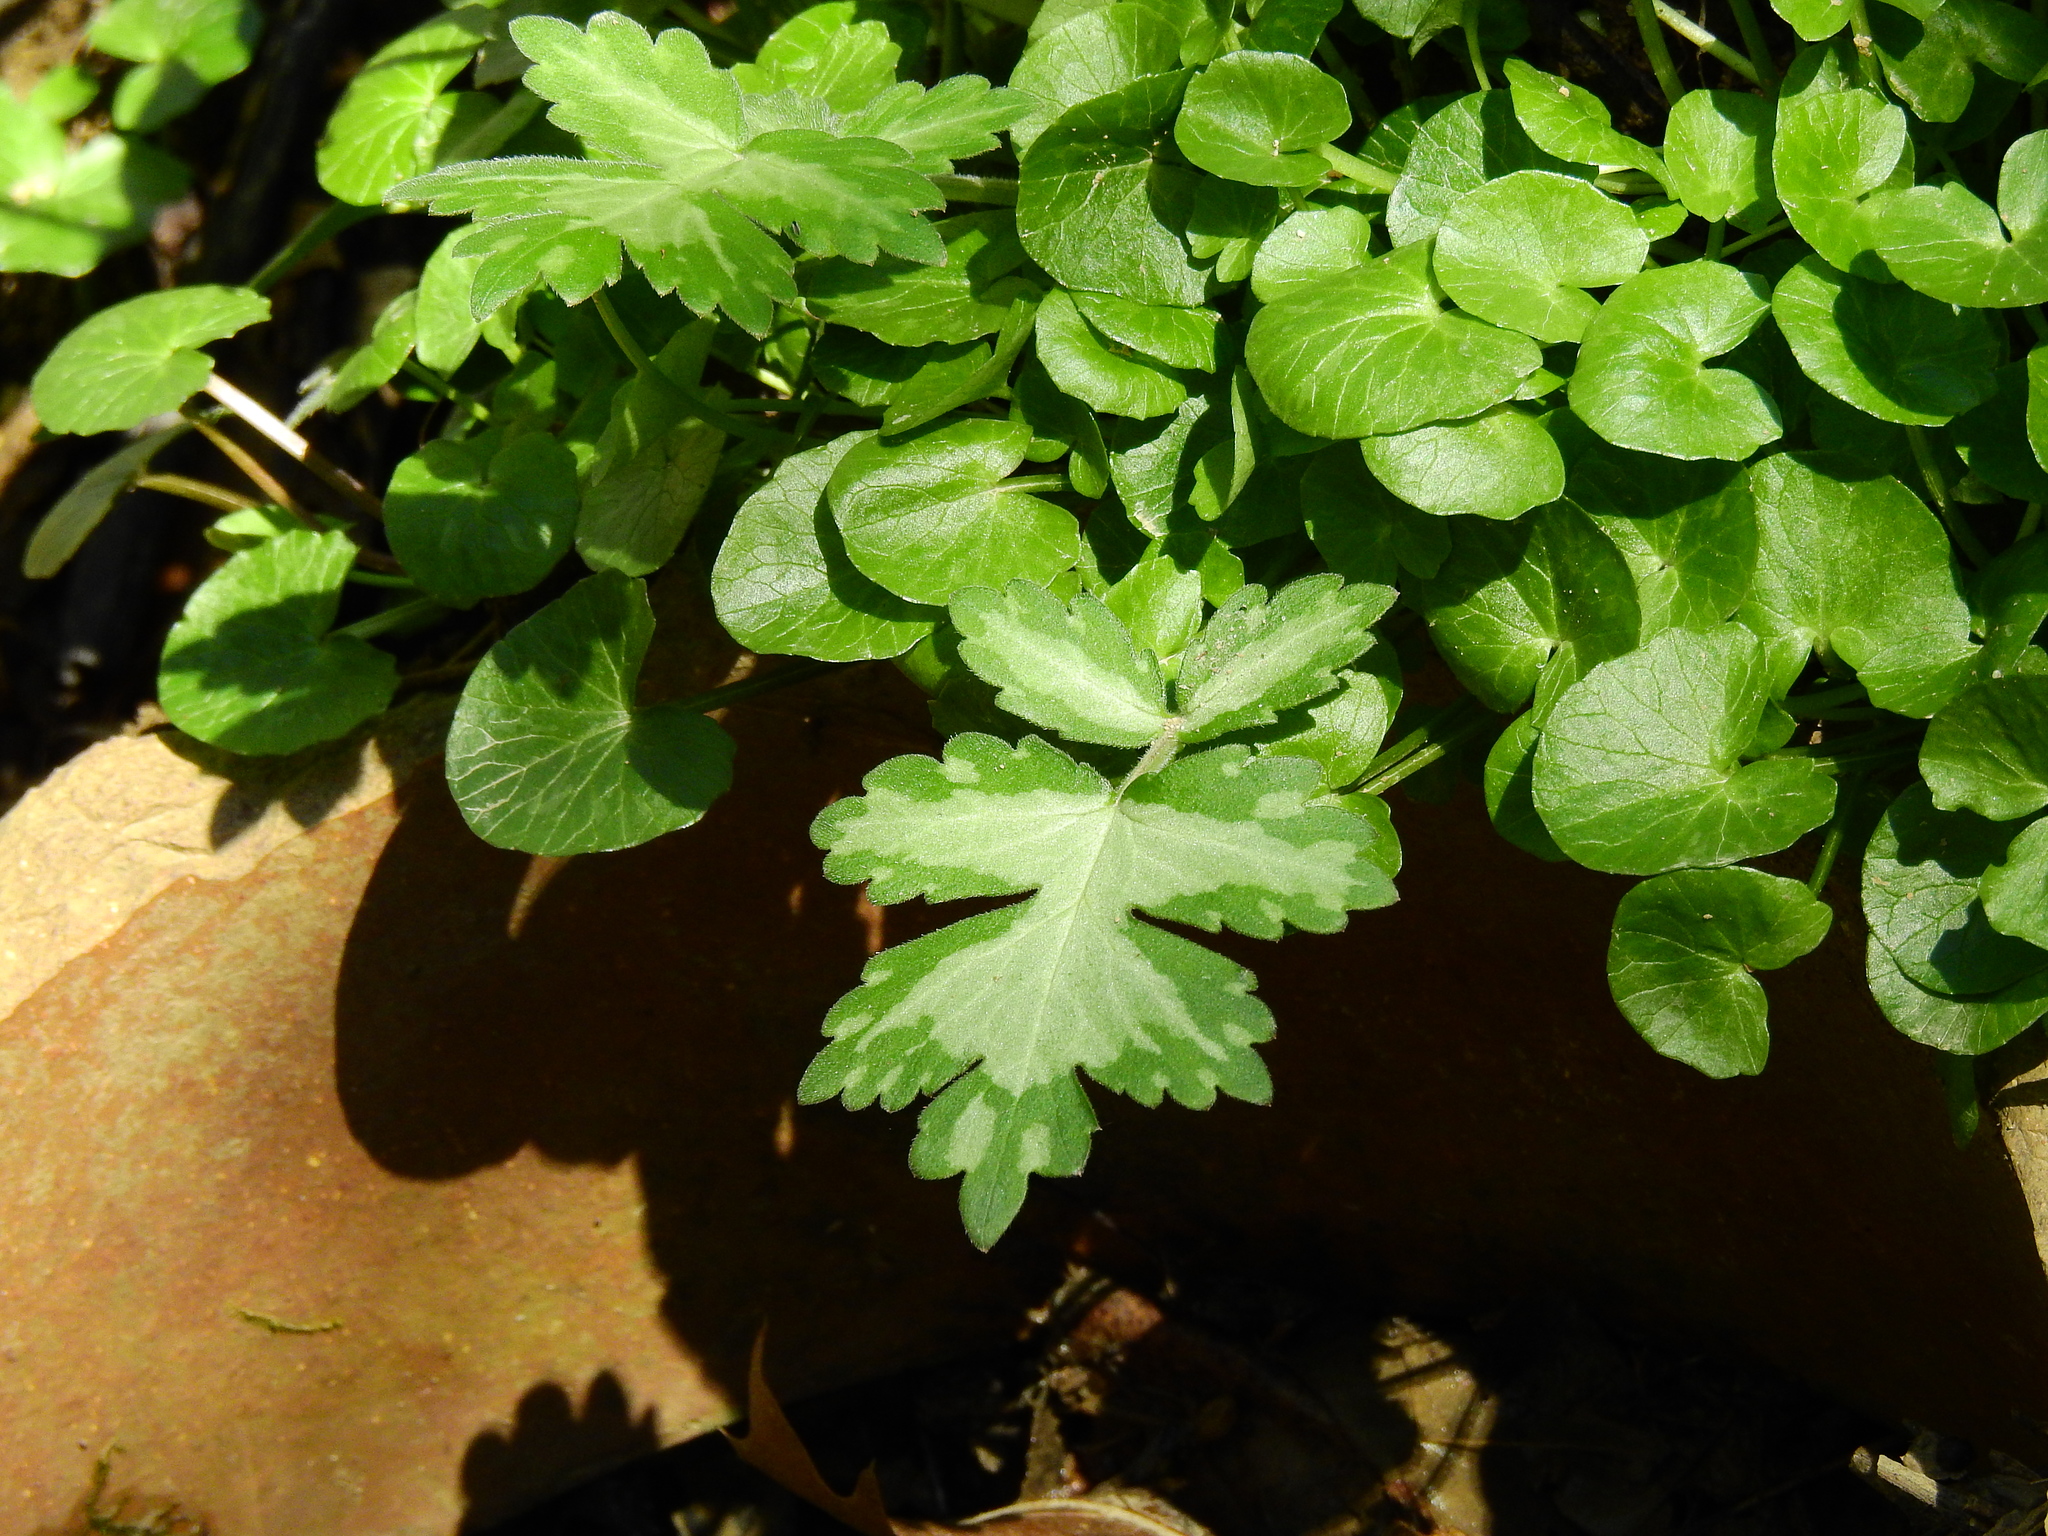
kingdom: Plantae
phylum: Tracheophyta
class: Magnoliopsida
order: Boraginales
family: Hydrophyllaceae
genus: Hydrophyllum
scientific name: Hydrophyllum appendiculatum
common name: Appendaged waterleaf
